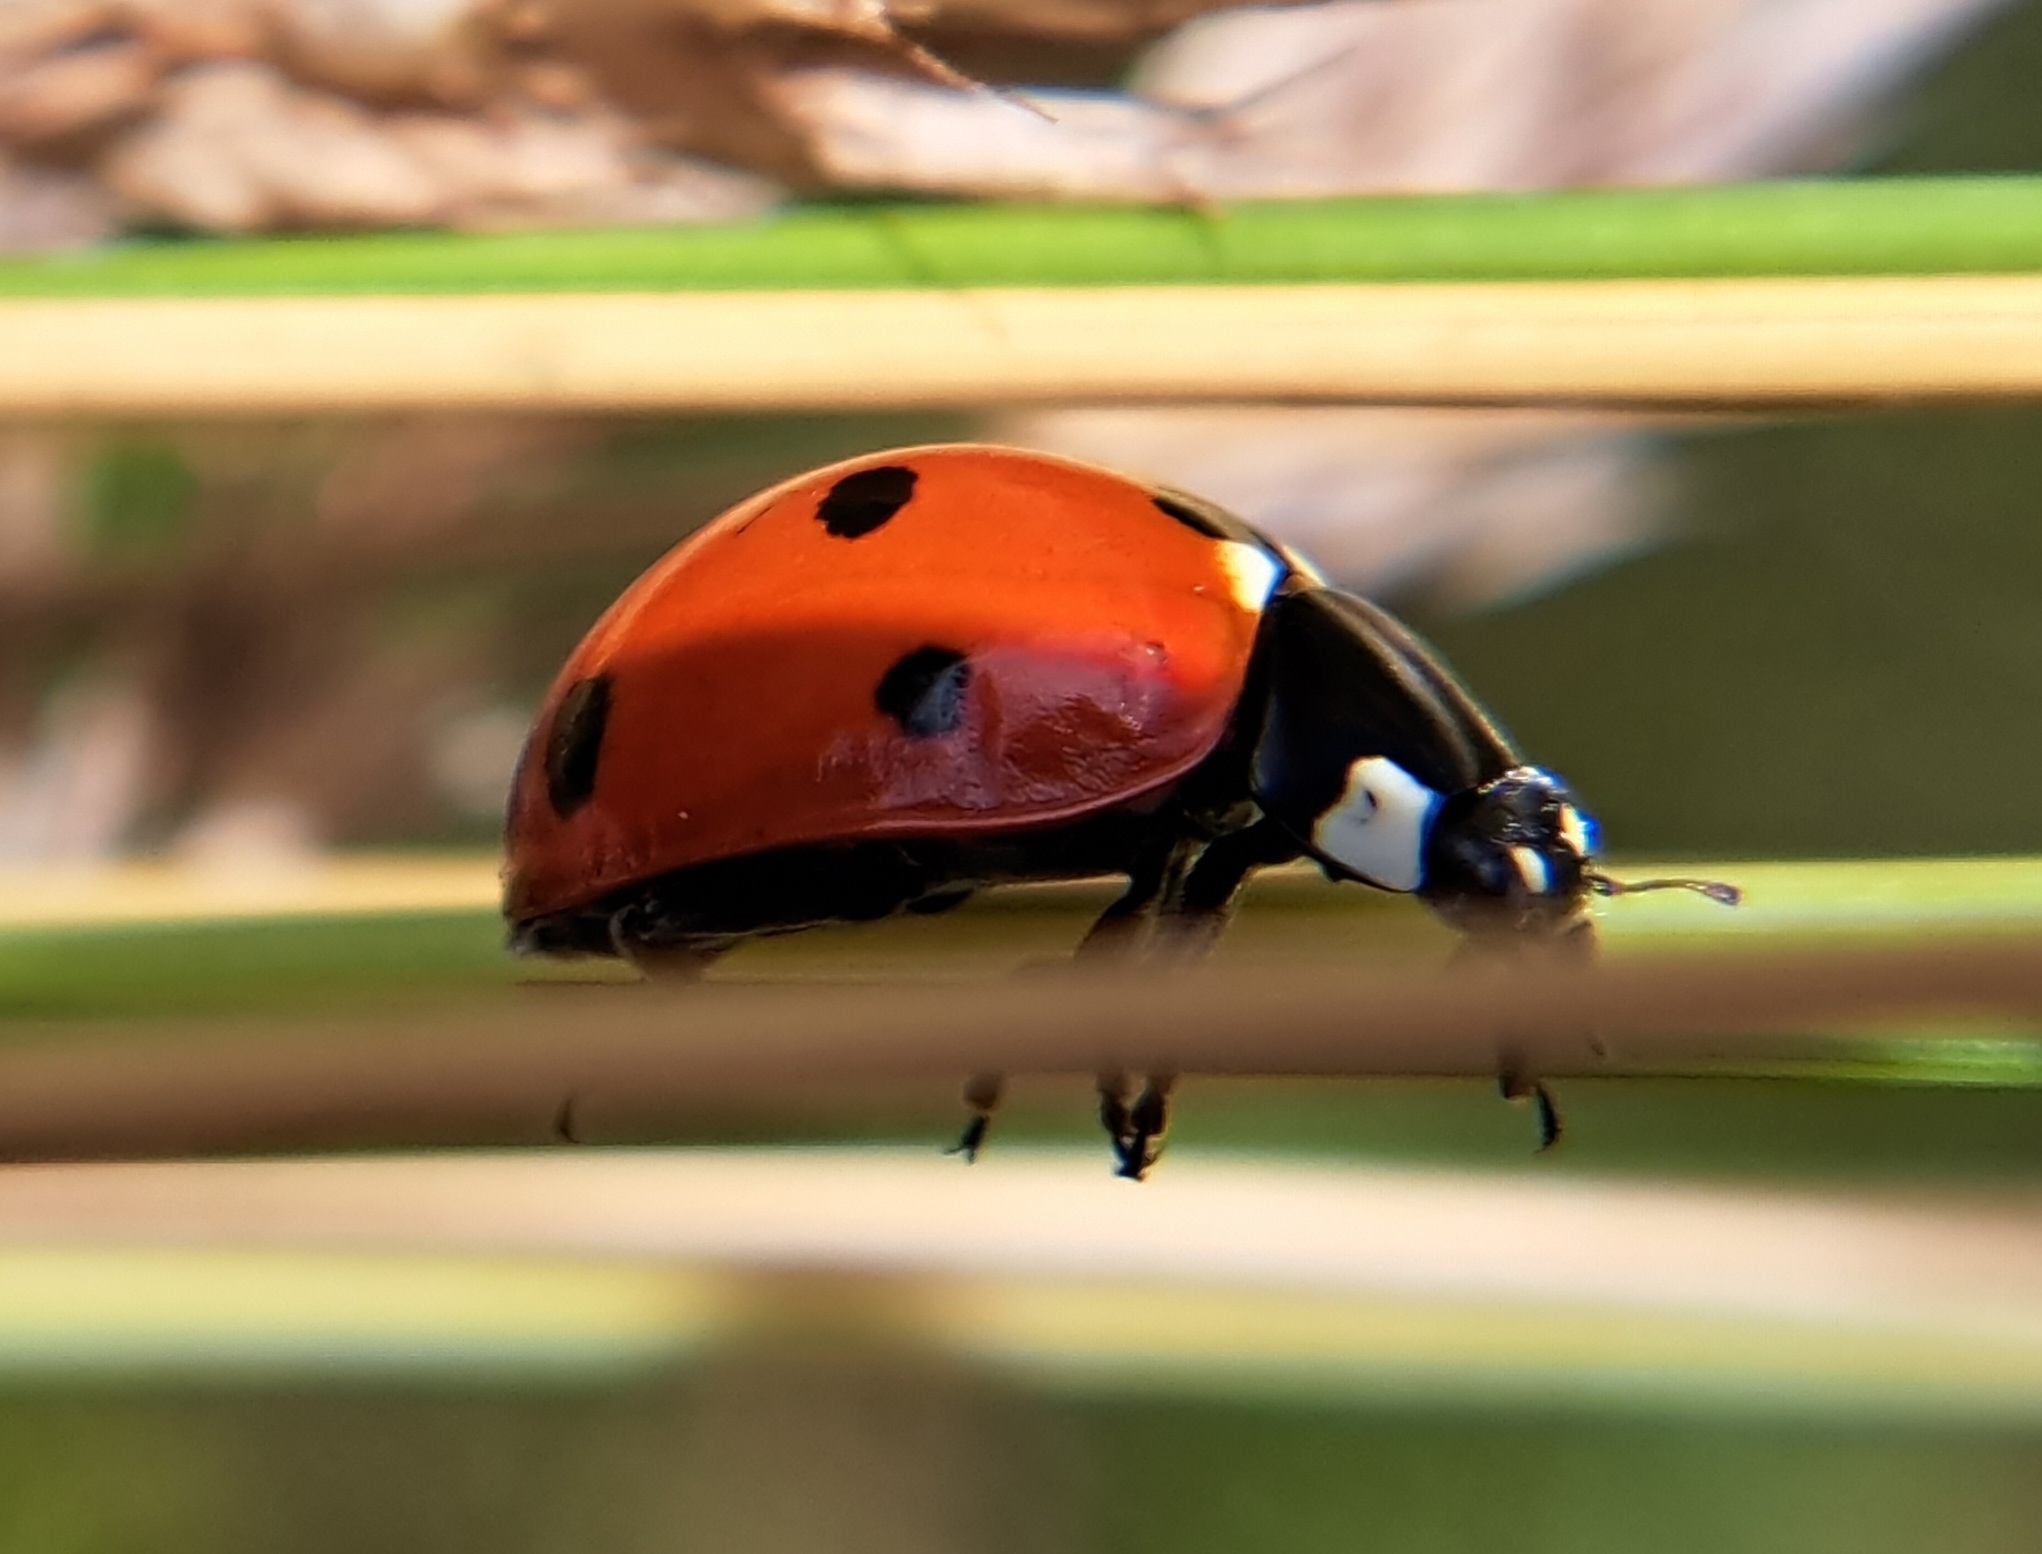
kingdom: Animalia
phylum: Arthropoda
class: Insecta
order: Coleoptera
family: Coccinellidae
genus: Coccinella
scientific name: Coccinella septempunctata
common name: Sevenspotted lady beetle
